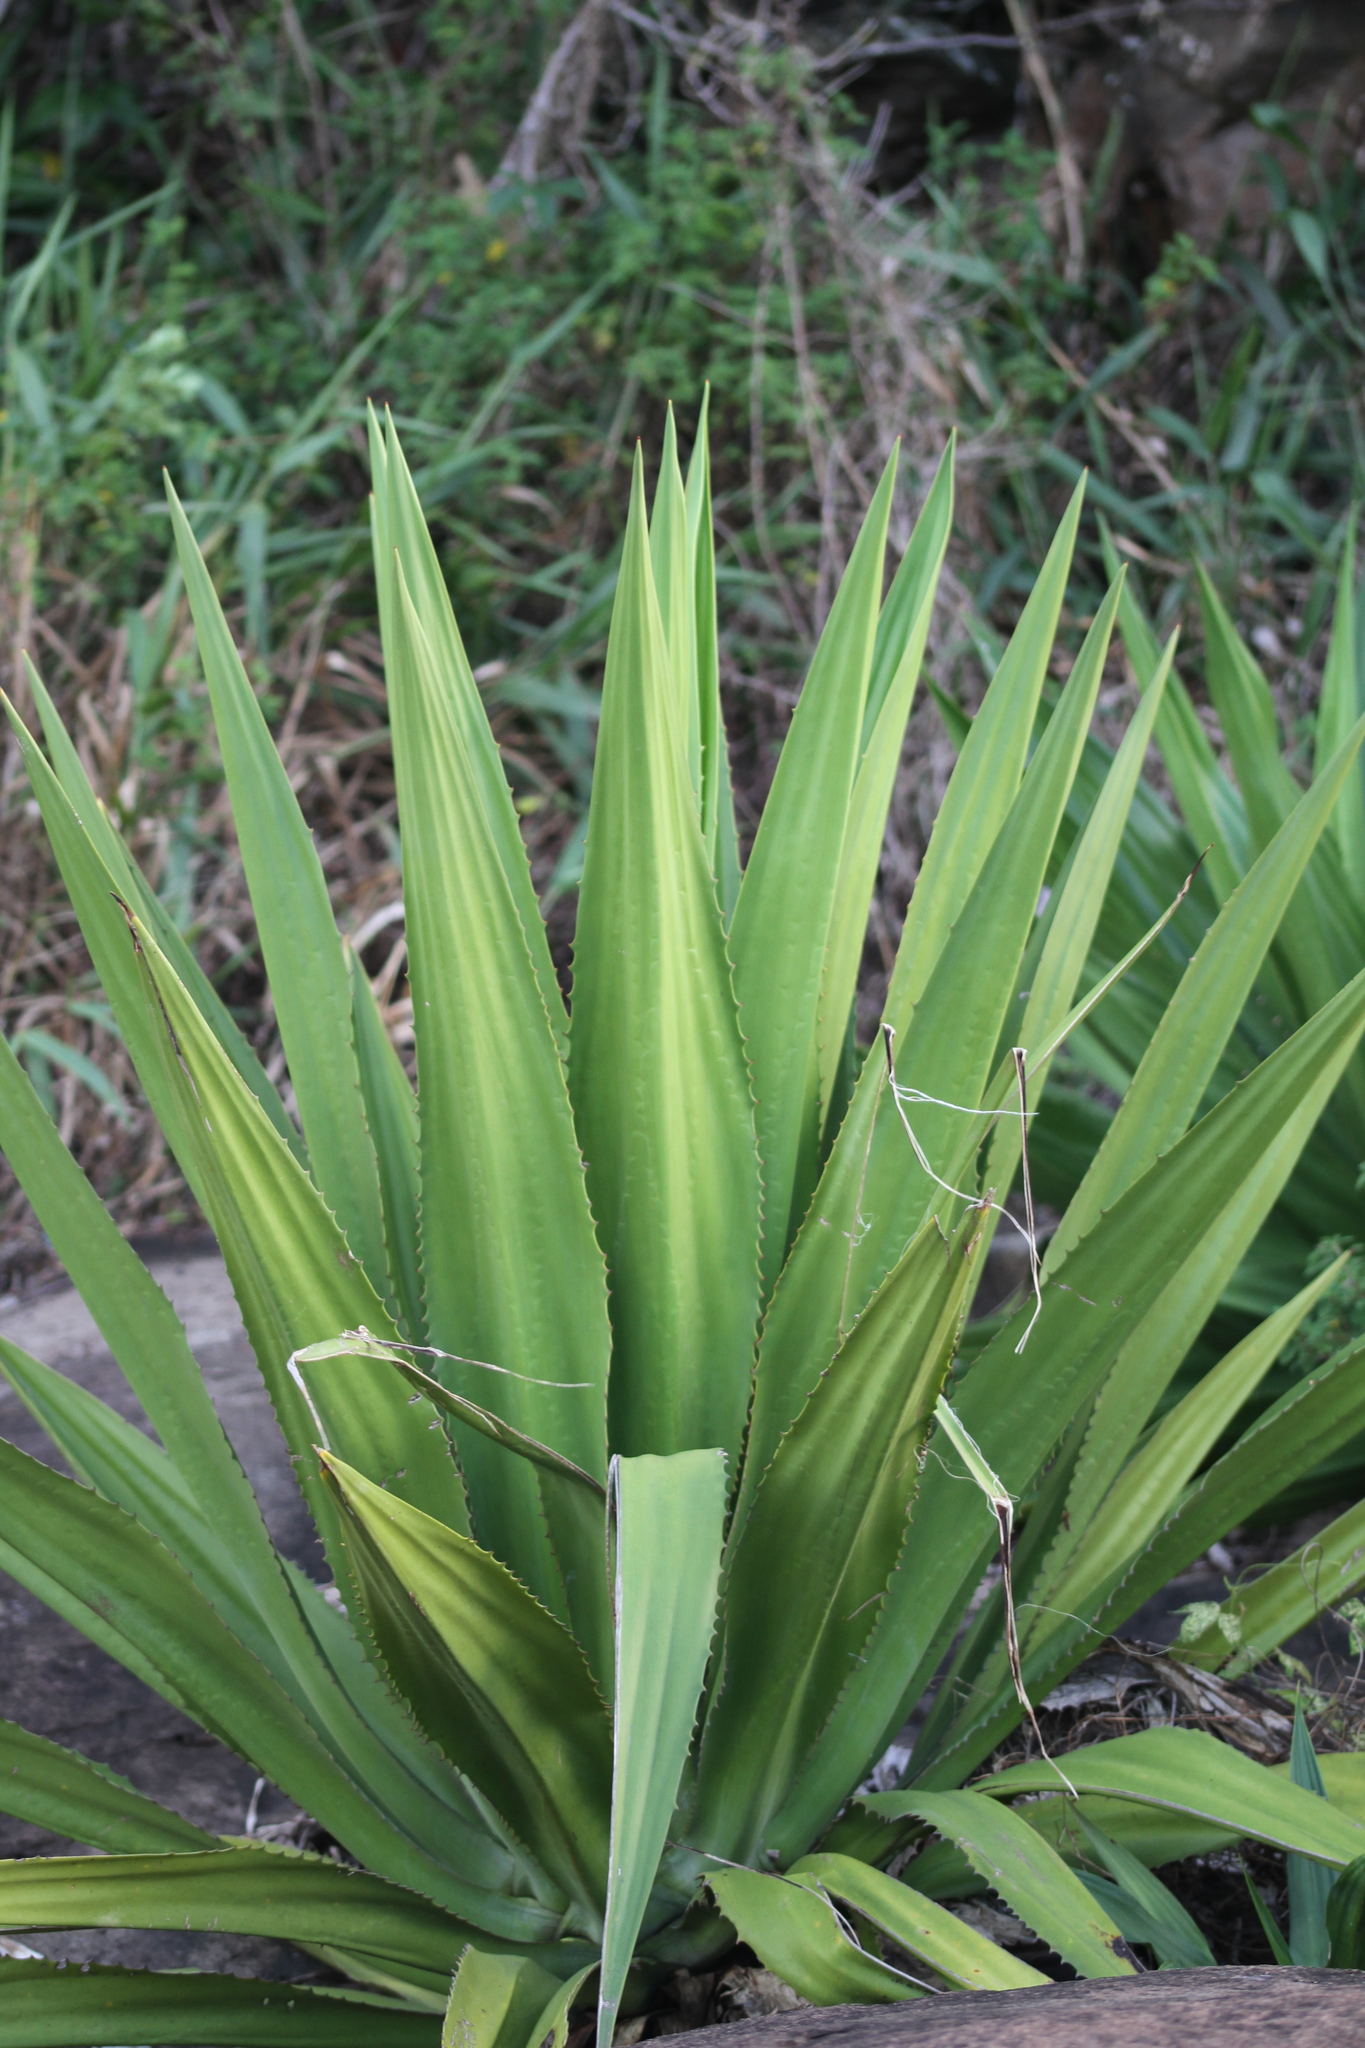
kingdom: Plantae
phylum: Tracheophyta
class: Liliopsida
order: Asparagales
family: Asparagaceae
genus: Furcraea
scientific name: Furcraea foetida
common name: Mauritius hemp
